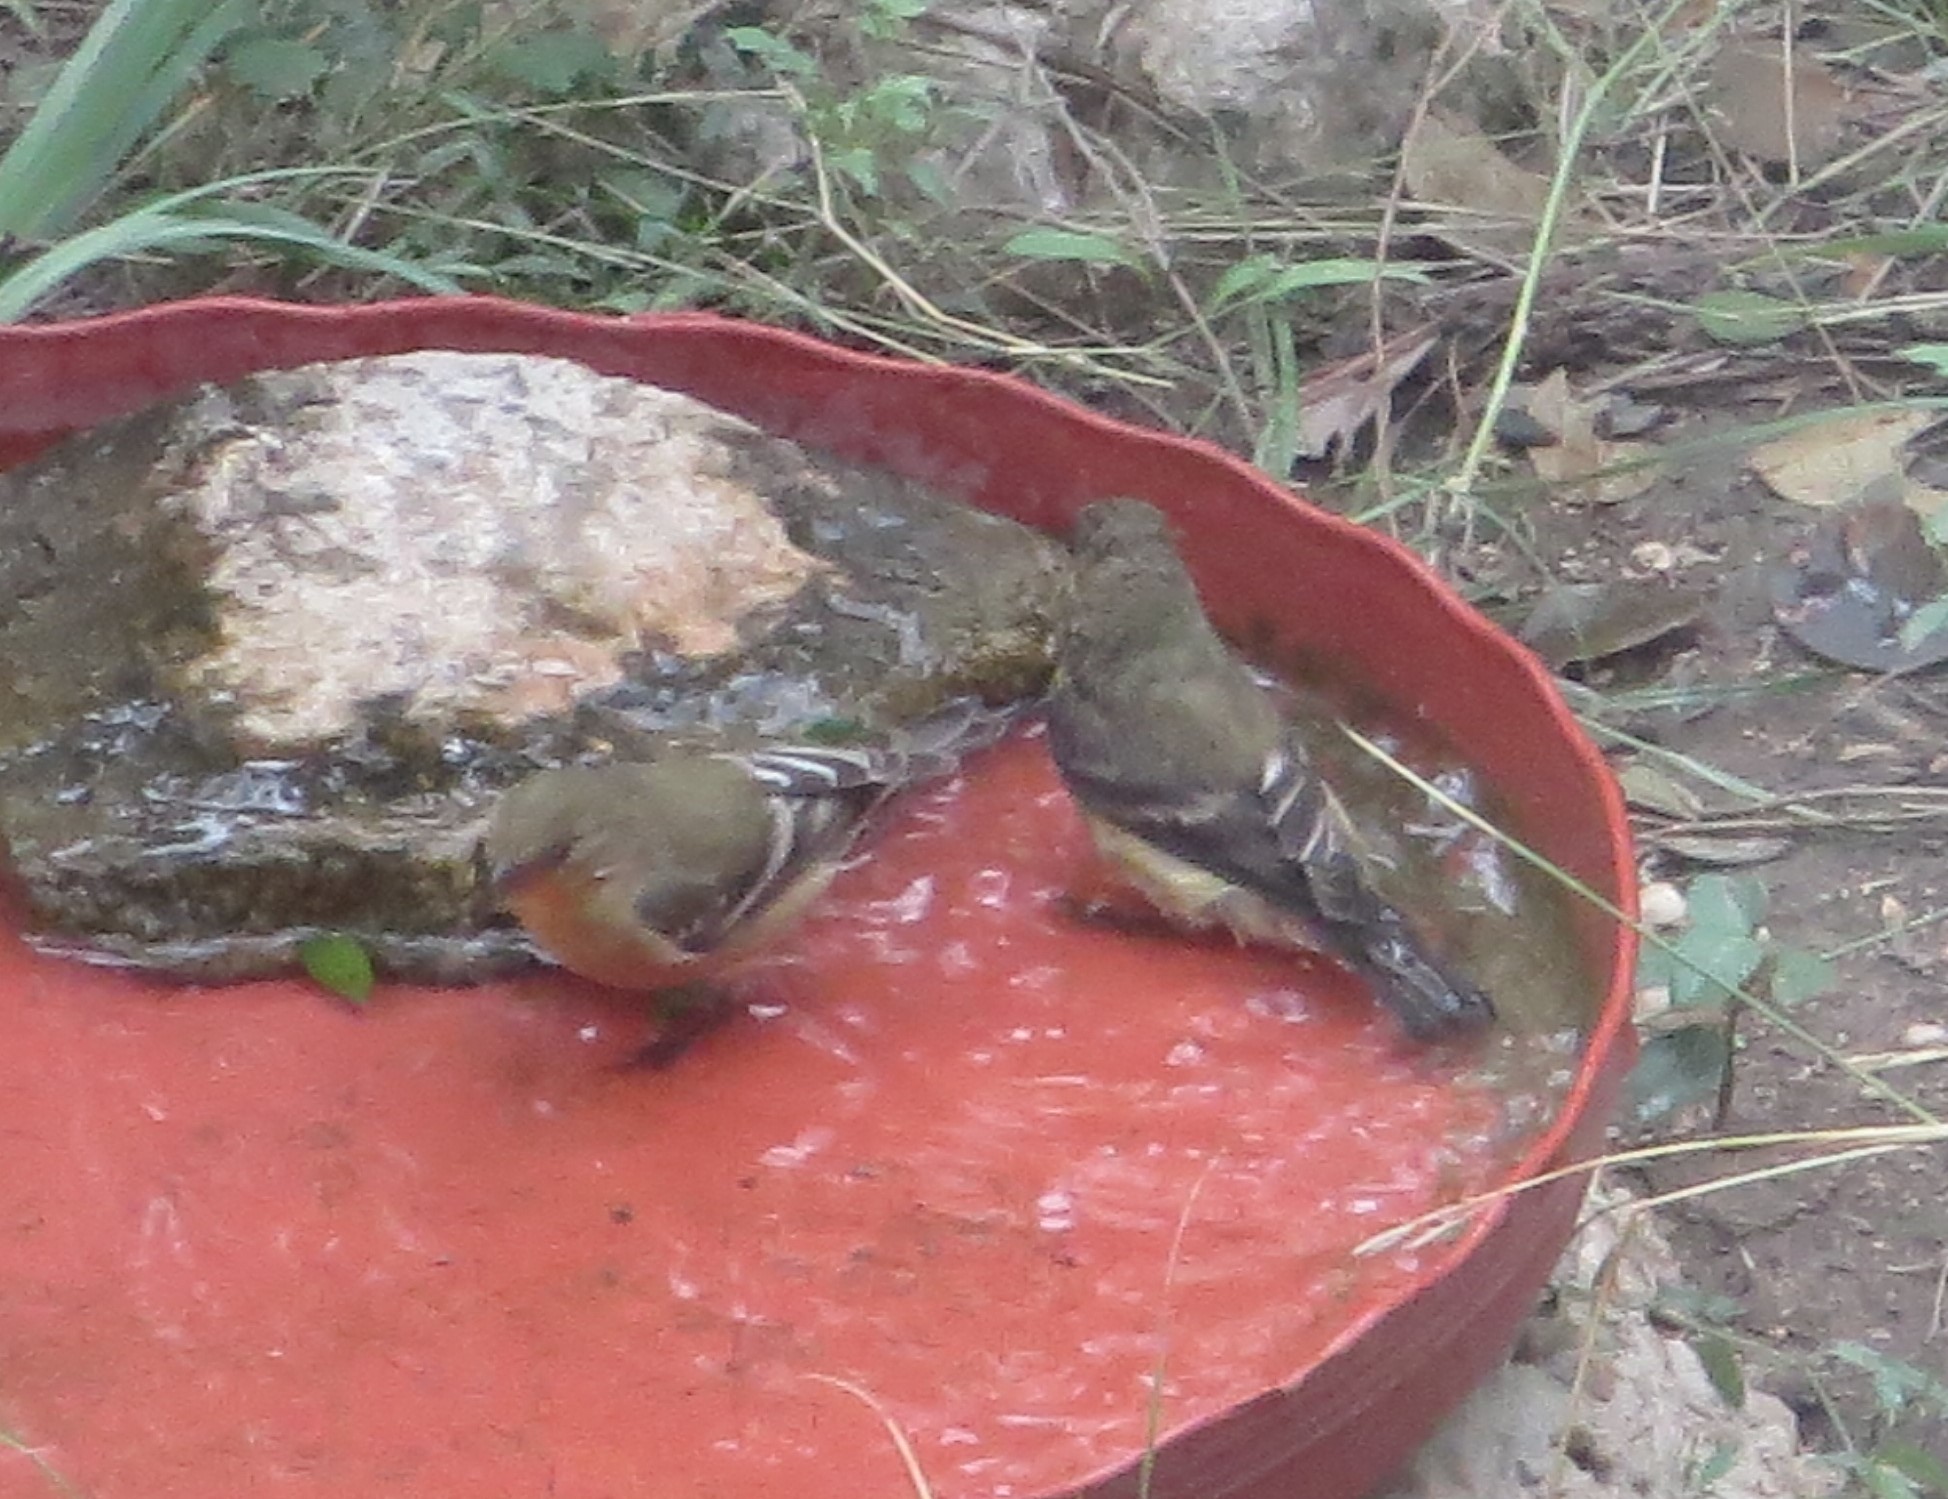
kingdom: Animalia
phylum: Chordata
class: Aves
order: Passeriformes
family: Fringillidae
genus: Spinus
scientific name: Spinus psaltria
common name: Lesser goldfinch
